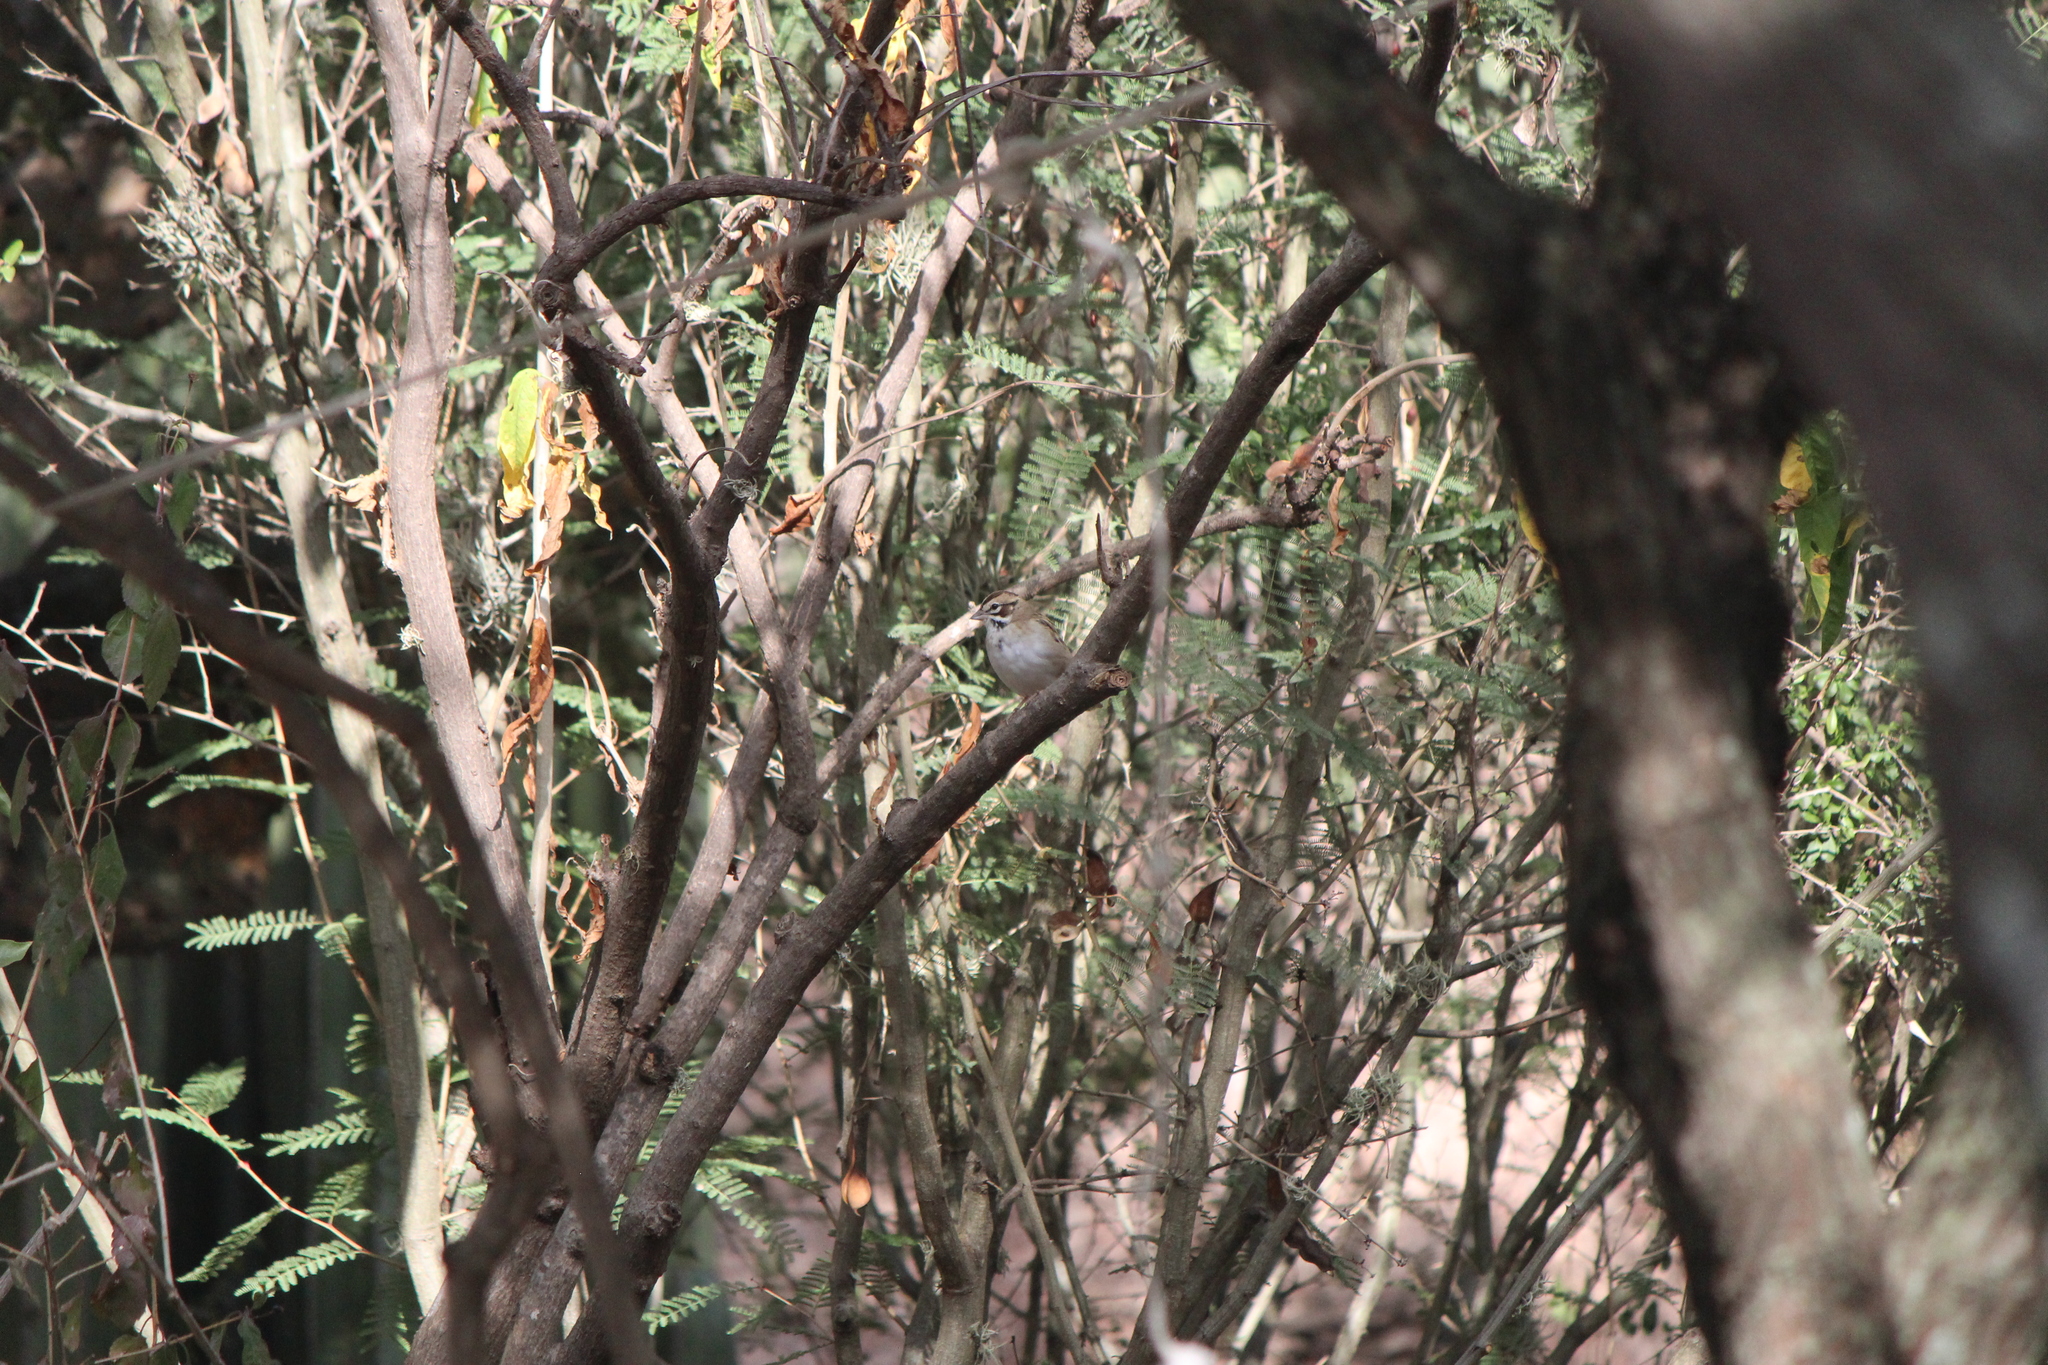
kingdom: Animalia
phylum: Chordata
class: Aves
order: Passeriformes
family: Passerellidae
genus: Chondestes
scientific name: Chondestes grammacus
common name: Lark sparrow
